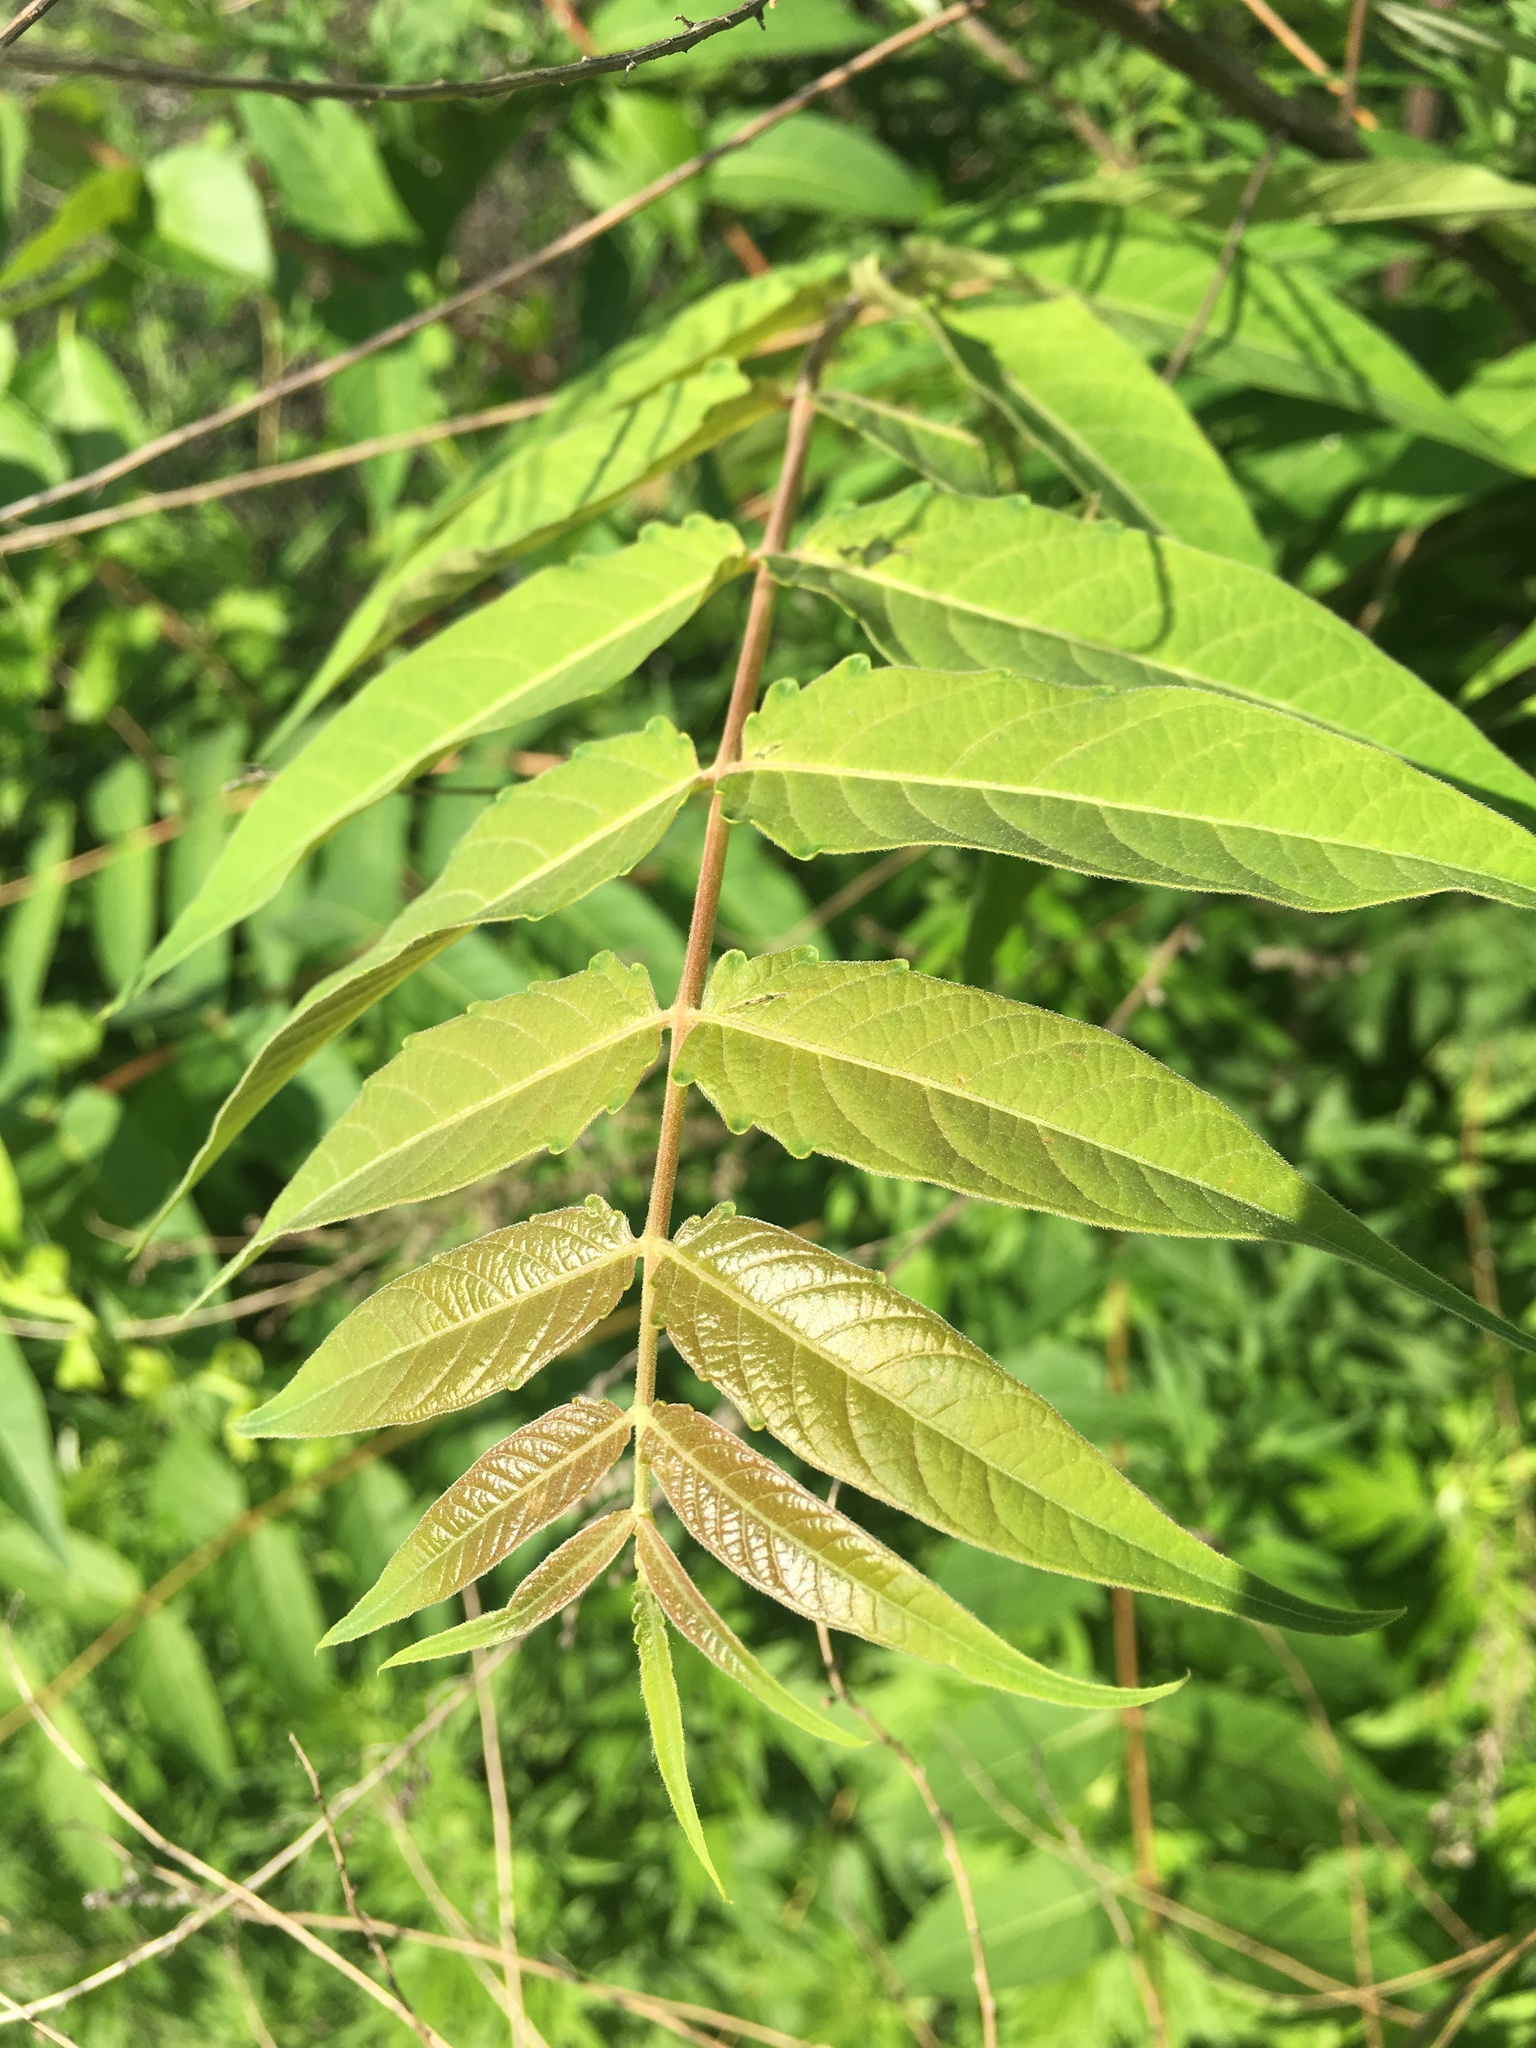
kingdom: Plantae
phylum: Tracheophyta
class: Magnoliopsida
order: Sapindales
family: Simaroubaceae
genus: Ailanthus
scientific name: Ailanthus altissima
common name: Tree-of-heaven
